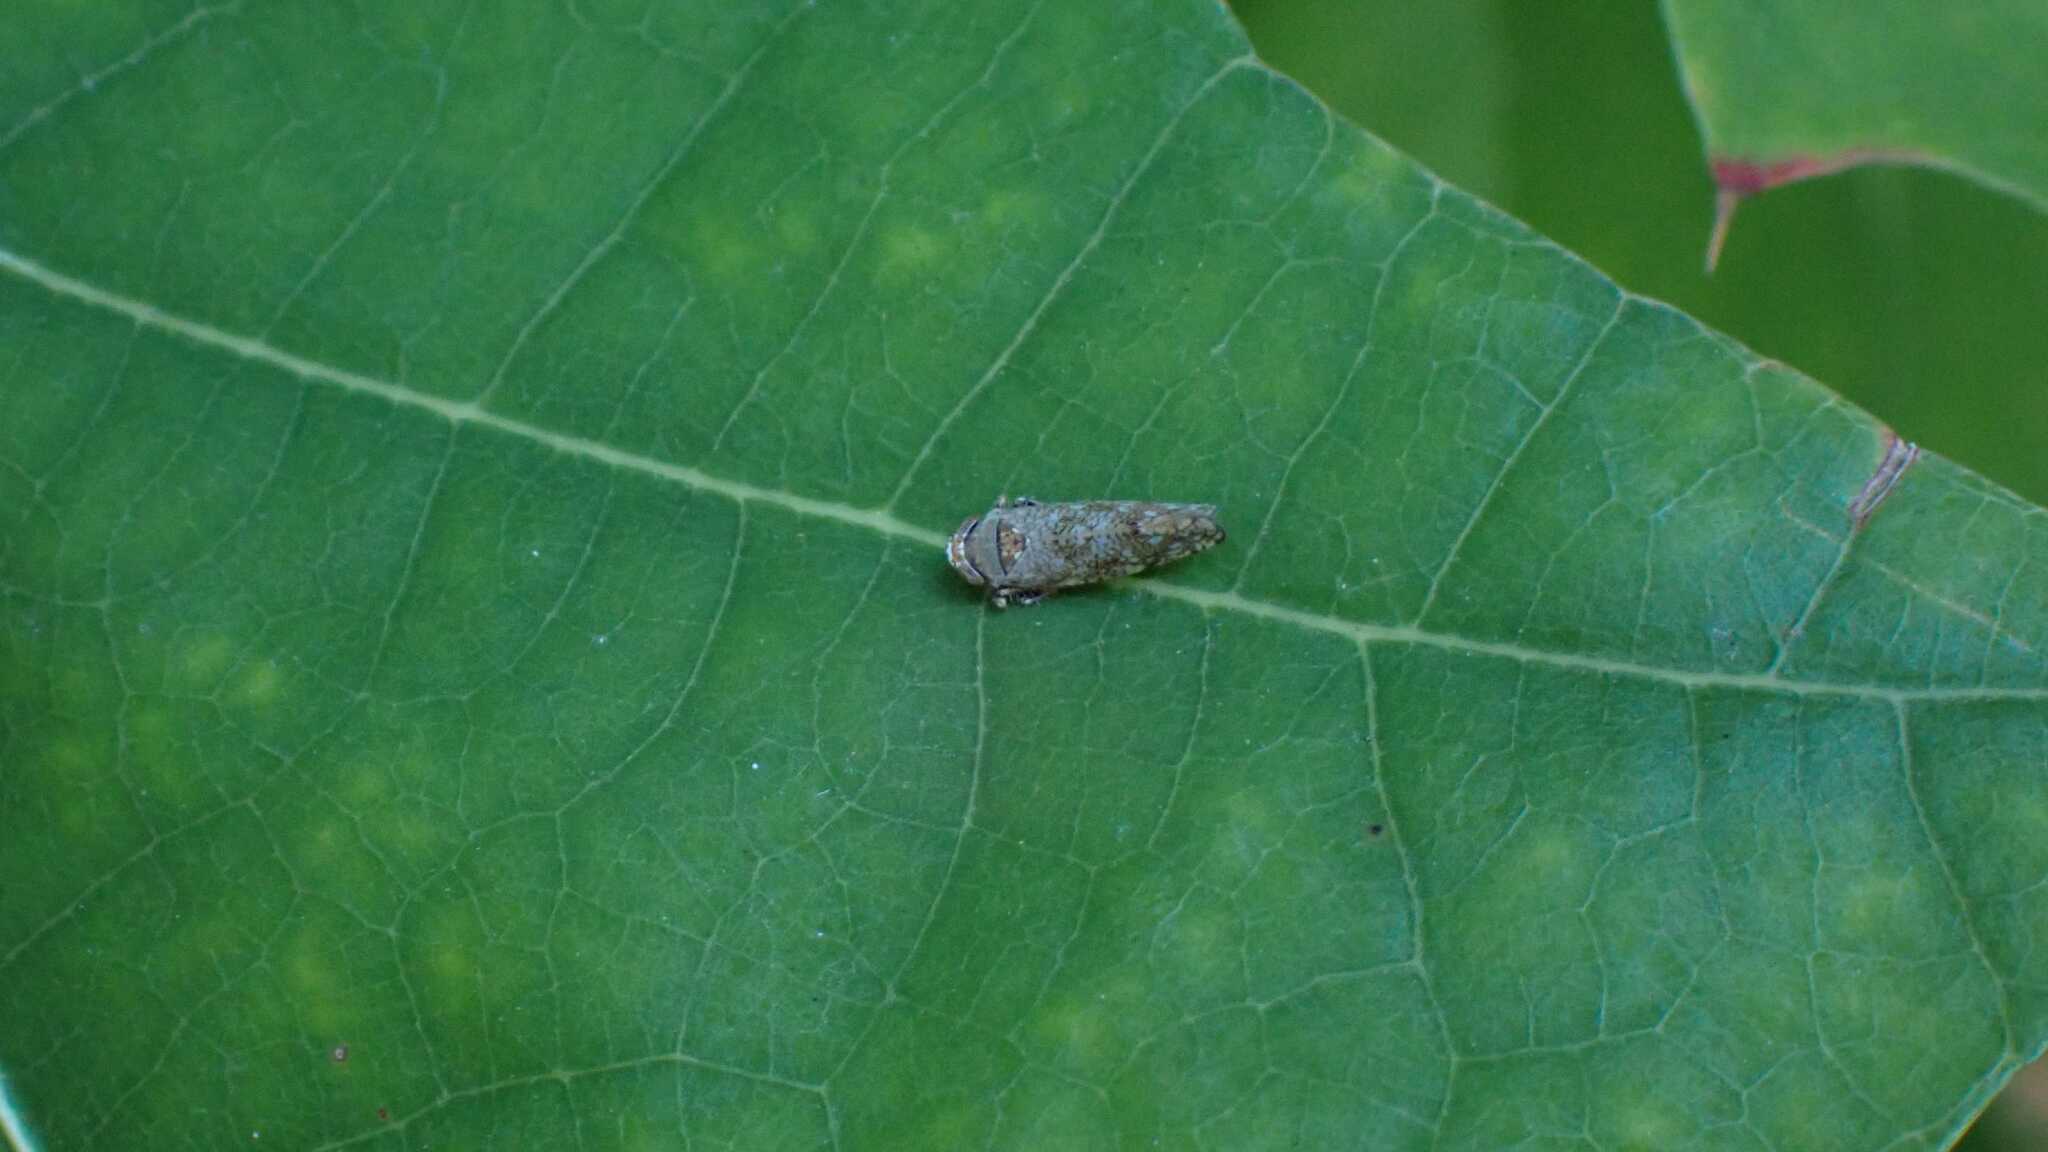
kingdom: Animalia
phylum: Arthropoda
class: Insecta
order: Hemiptera
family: Cicadellidae
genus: Orientus
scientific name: Orientus ishidae
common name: Japanese leafhopper
